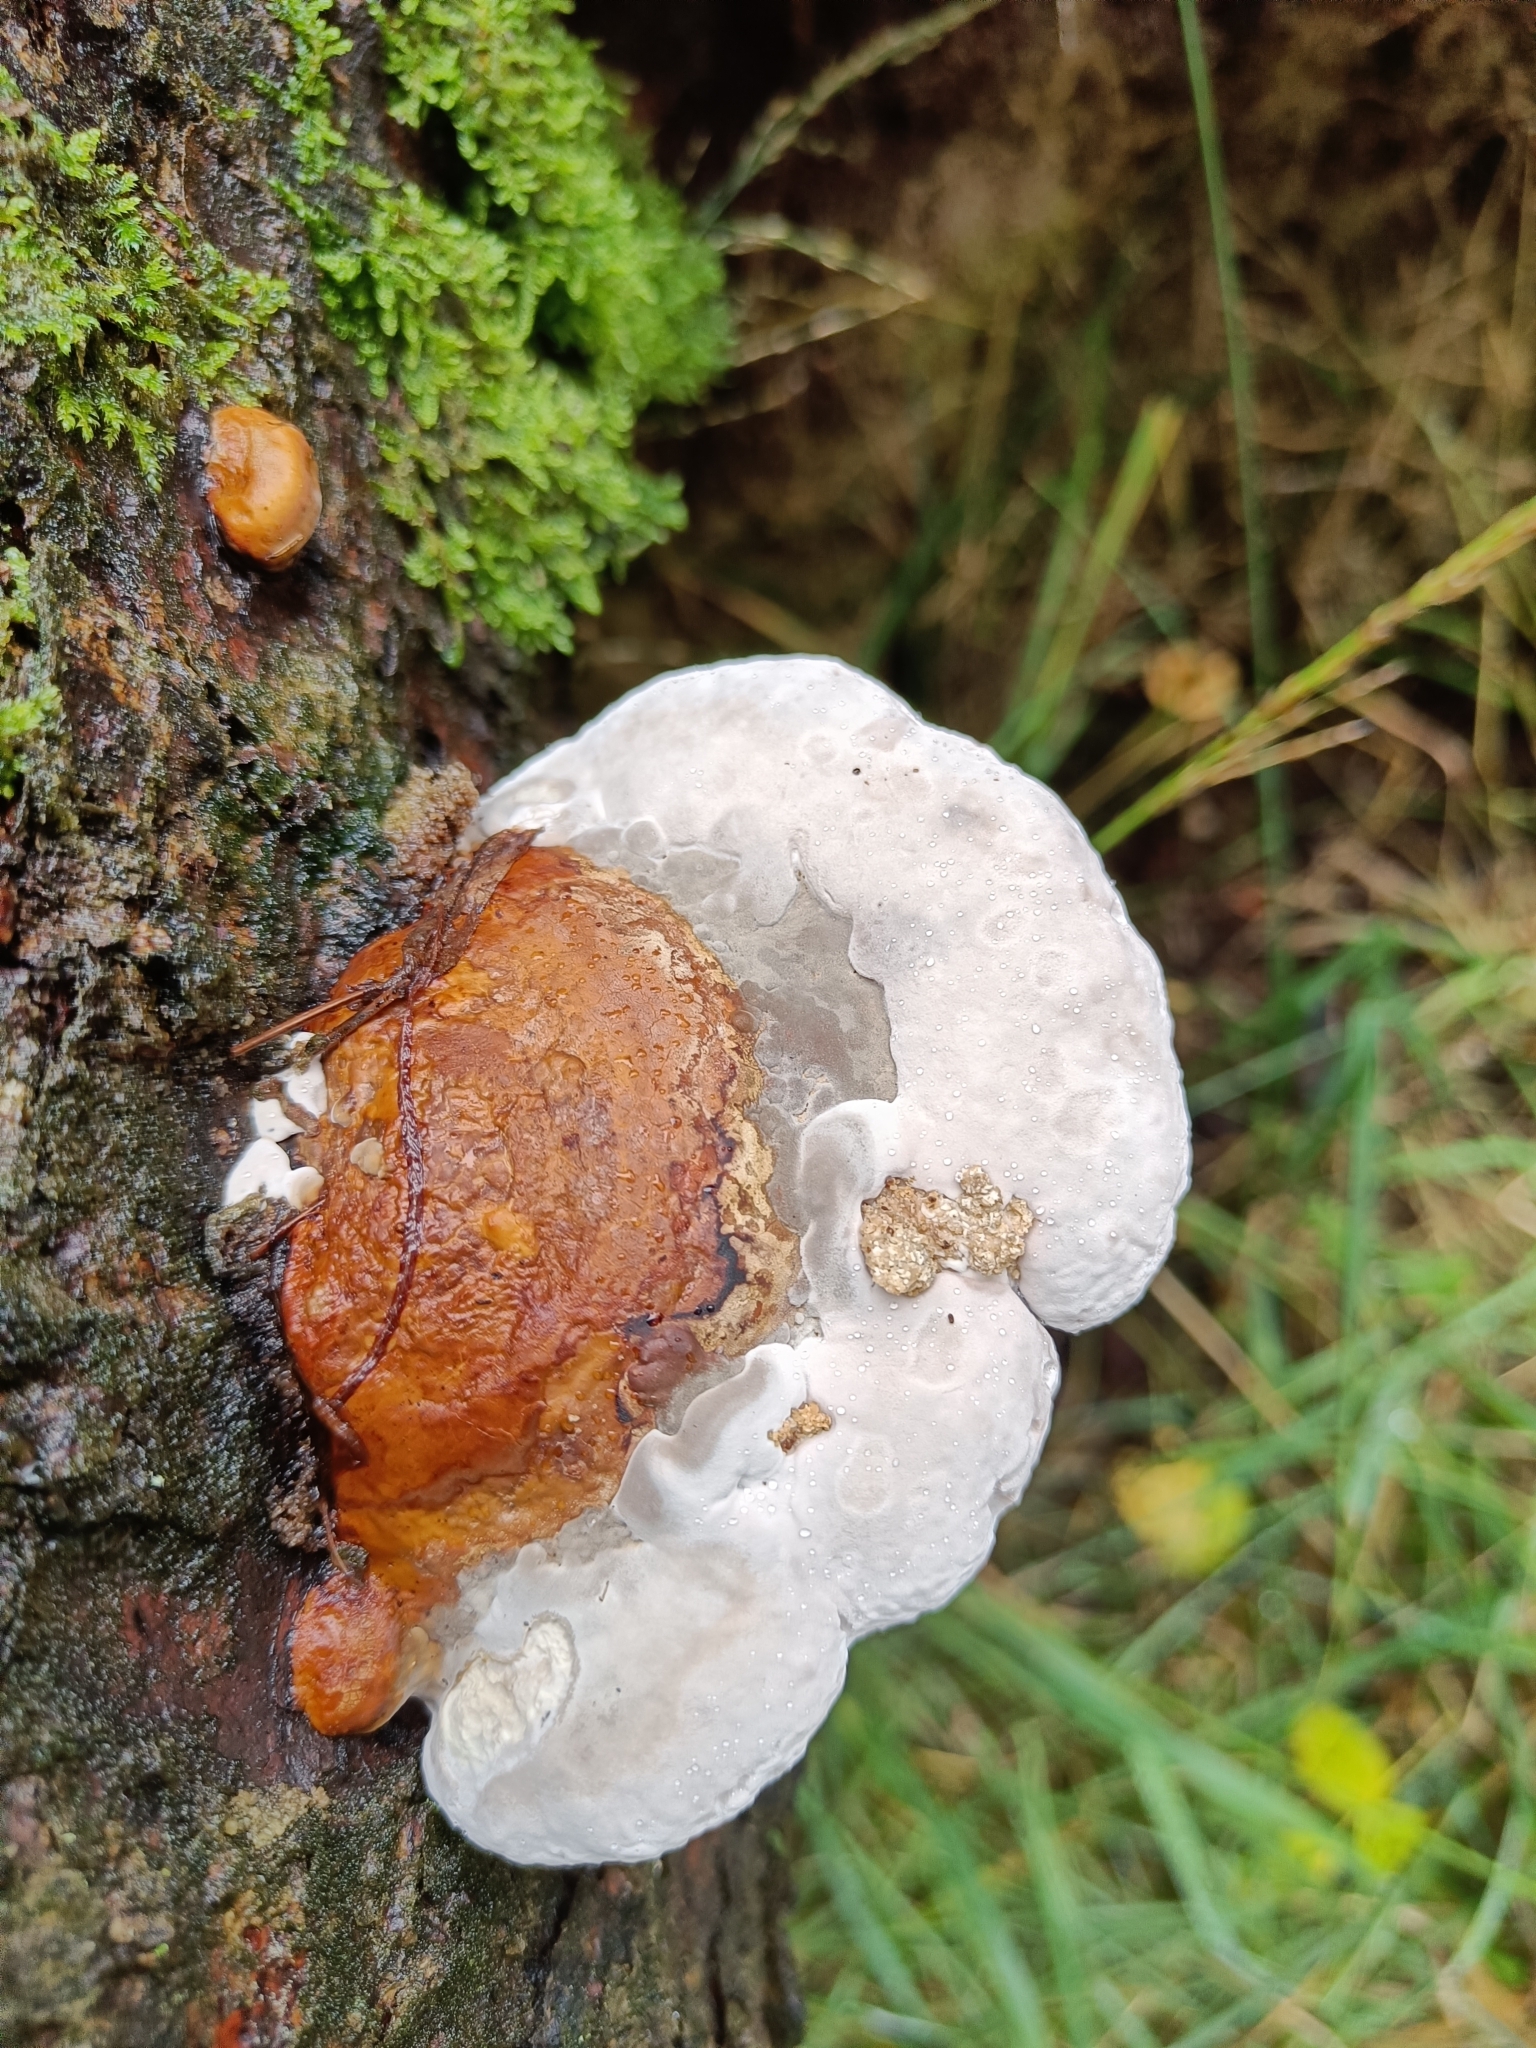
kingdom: Fungi
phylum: Basidiomycota
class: Agaricomycetes
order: Polyporales
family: Fomitopsidaceae
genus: Fomitopsis
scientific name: Fomitopsis pinicola
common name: Red-belted bracket
